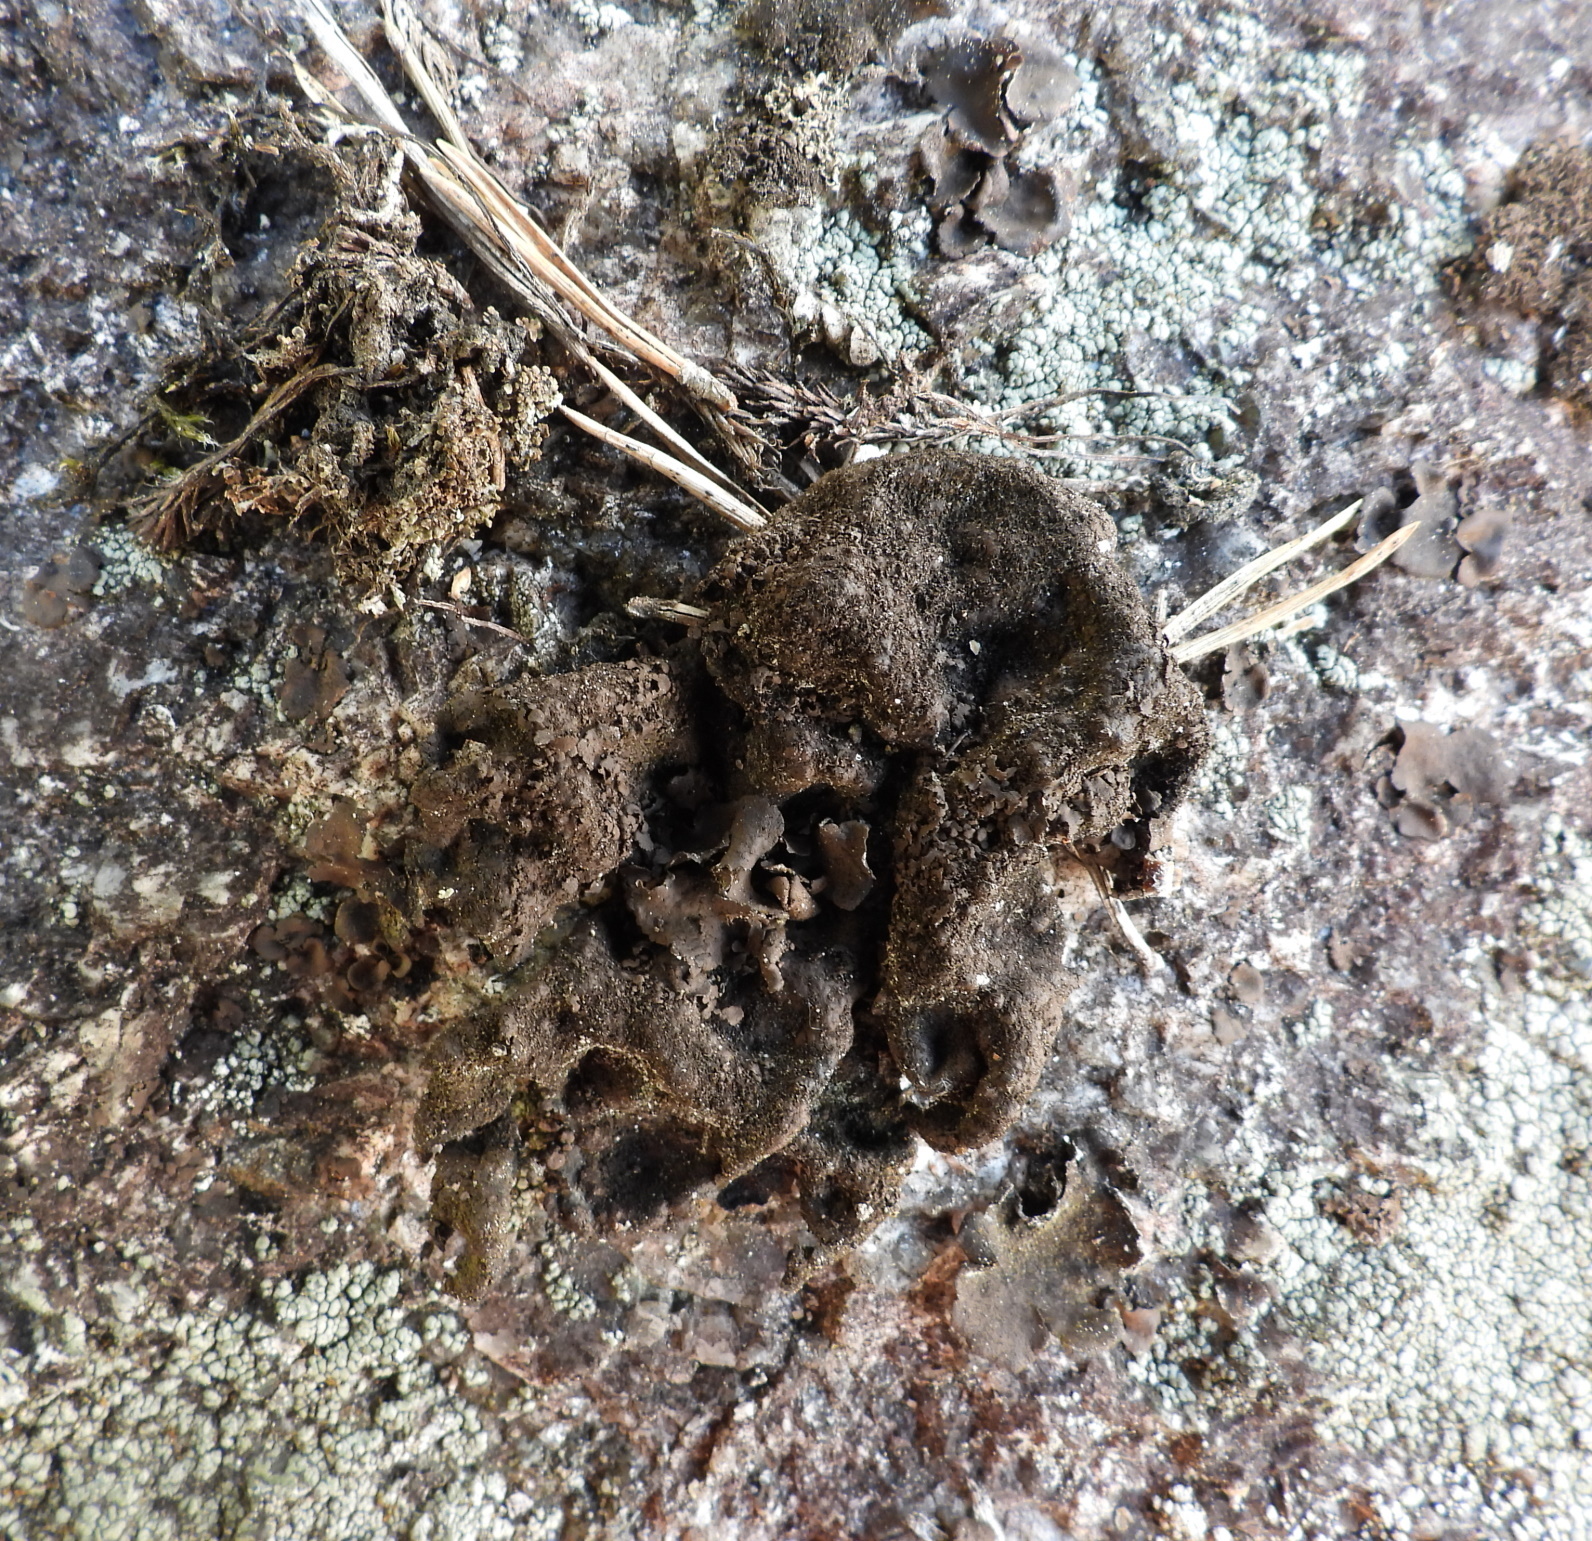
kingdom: Fungi
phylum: Ascomycota
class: Lecanoromycetes
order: Umbilicariales
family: Umbilicariaceae
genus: Umbilicaria
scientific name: Umbilicaria deusta
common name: Peppered rock tripe
